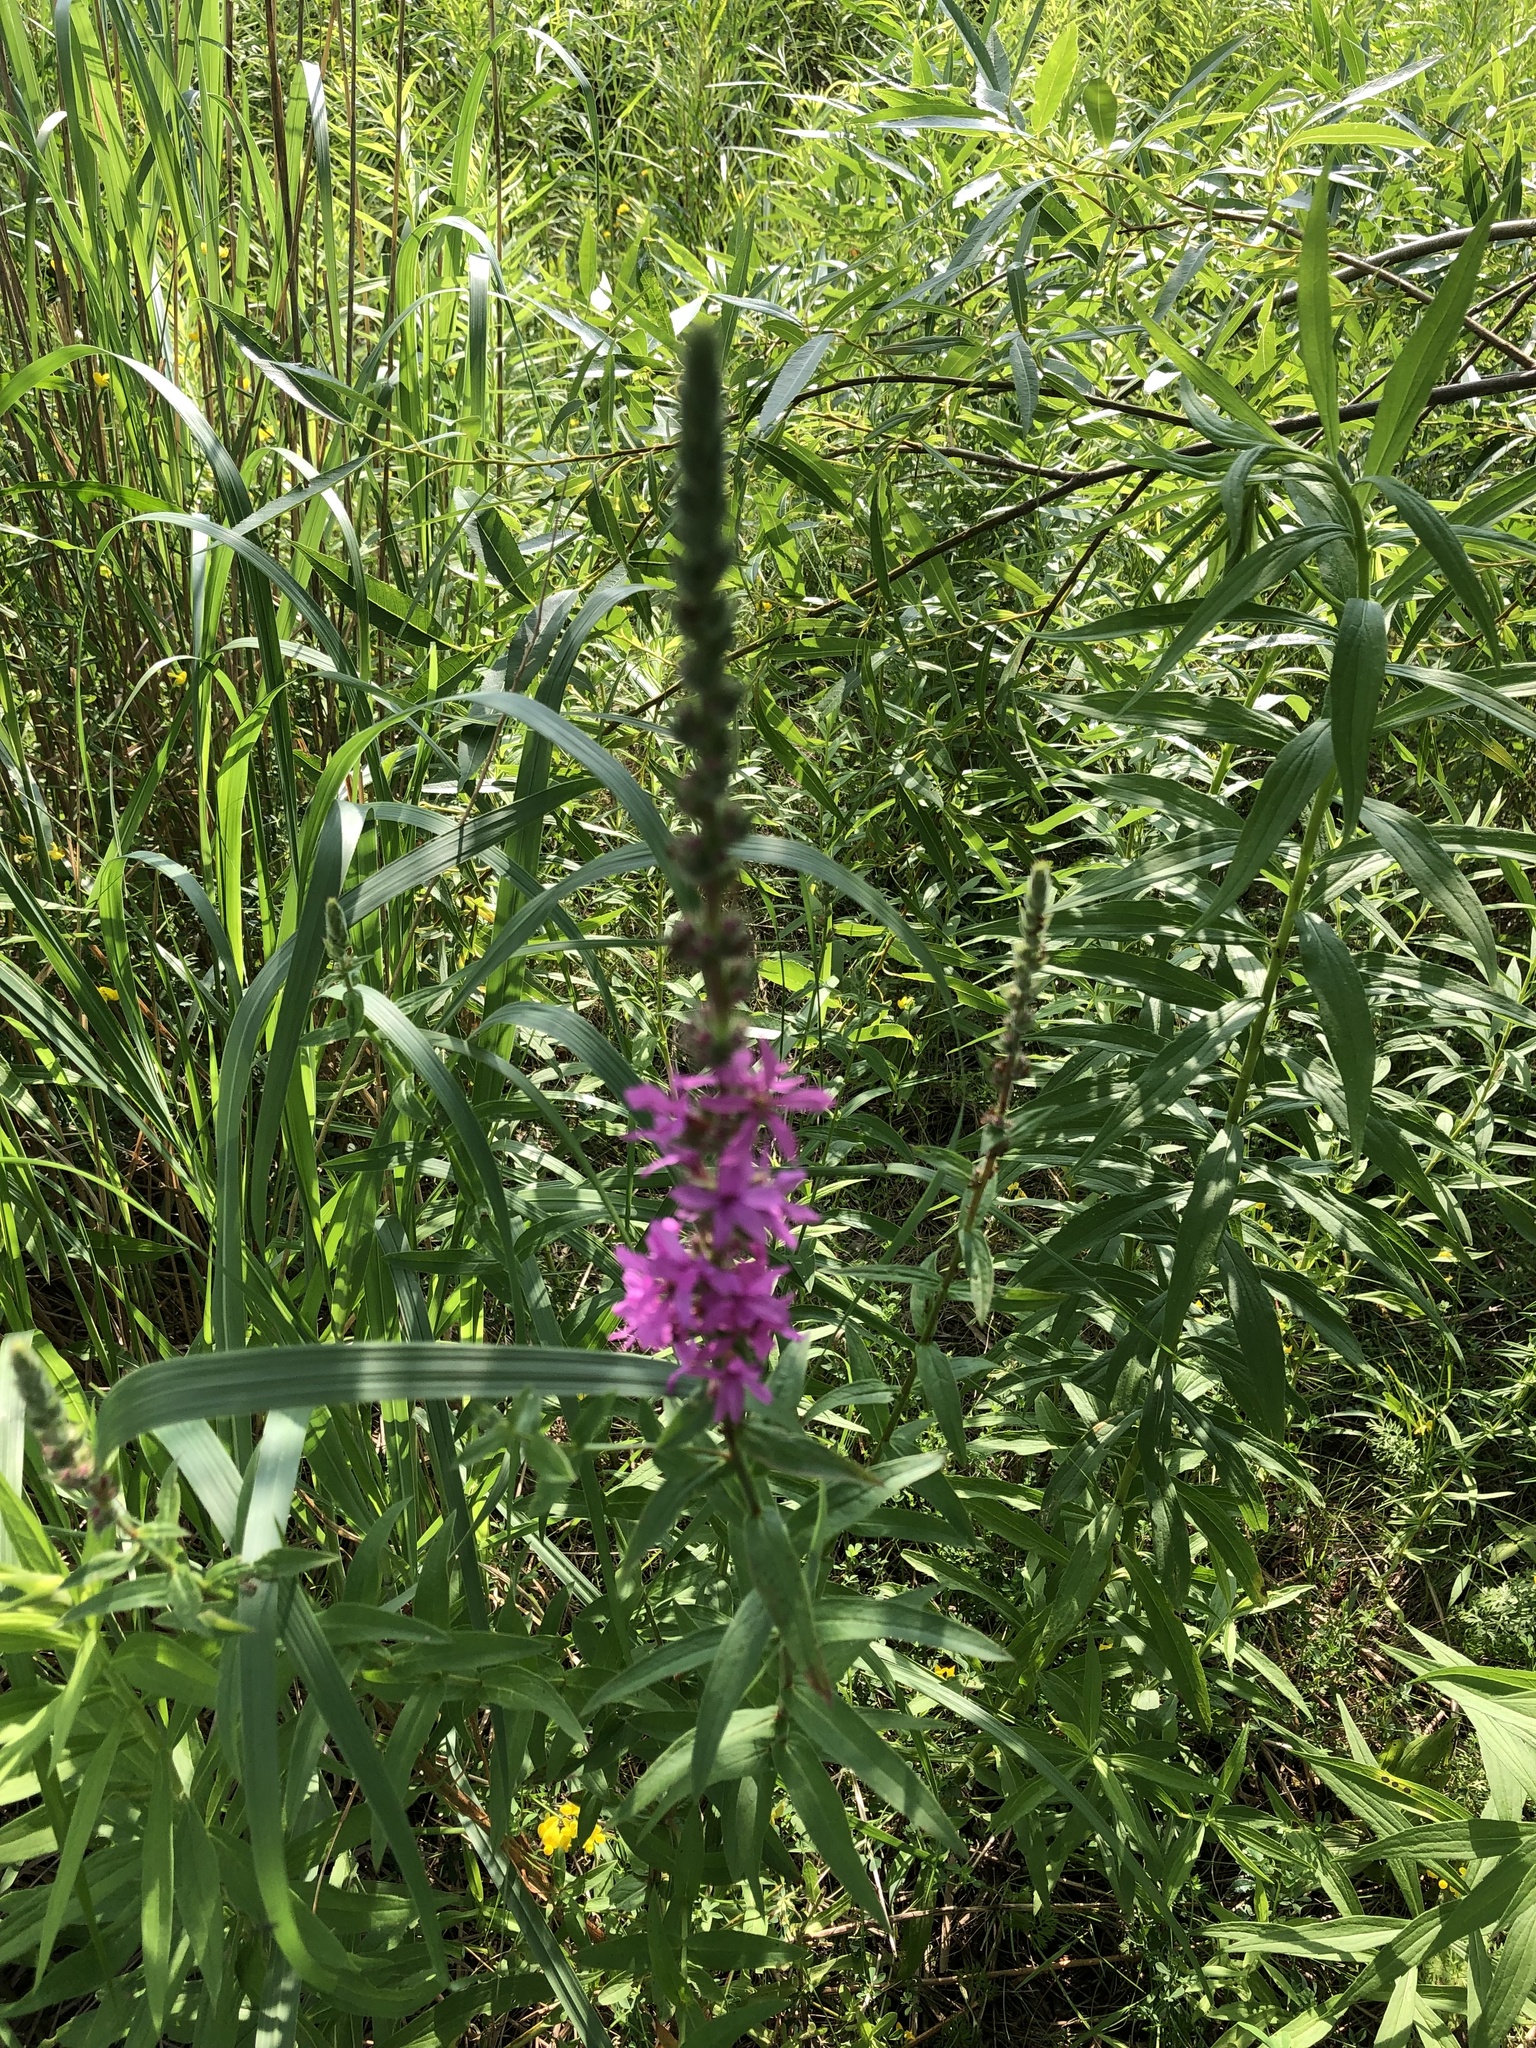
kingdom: Plantae
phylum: Tracheophyta
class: Magnoliopsida
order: Myrtales
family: Lythraceae
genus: Lythrum
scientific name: Lythrum salicaria
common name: Purple loosestrife
